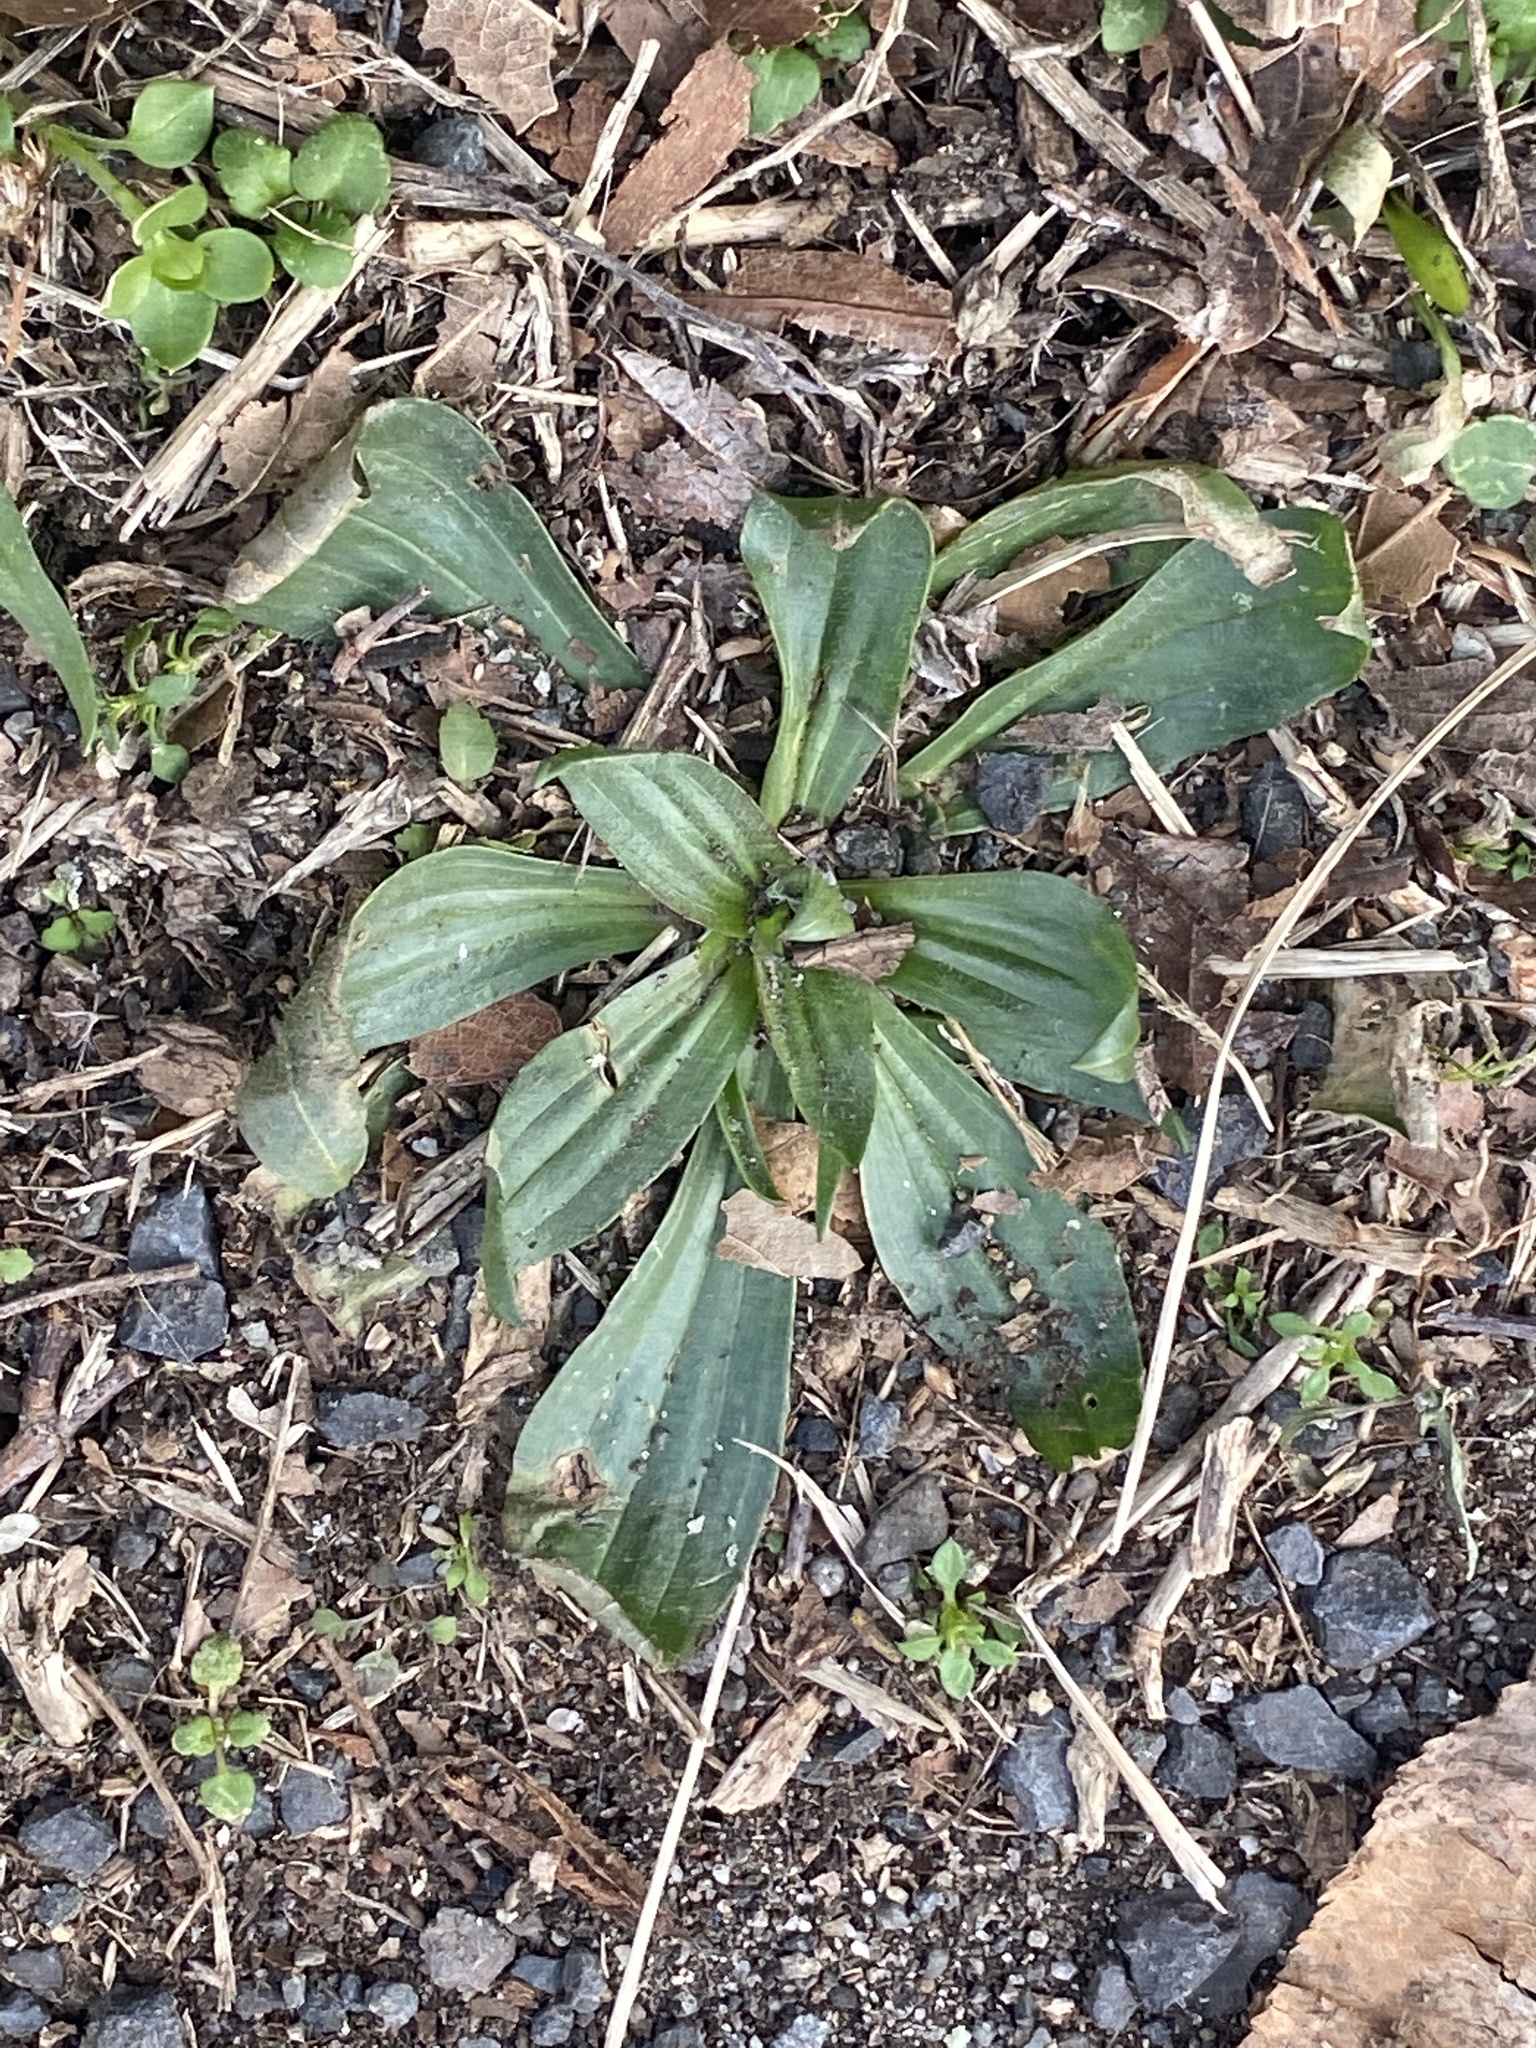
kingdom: Plantae
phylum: Tracheophyta
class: Magnoliopsida
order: Lamiales
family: Plantaginaceae
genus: Plantago
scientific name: Plantago lanceolata
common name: Ribwort plantain
